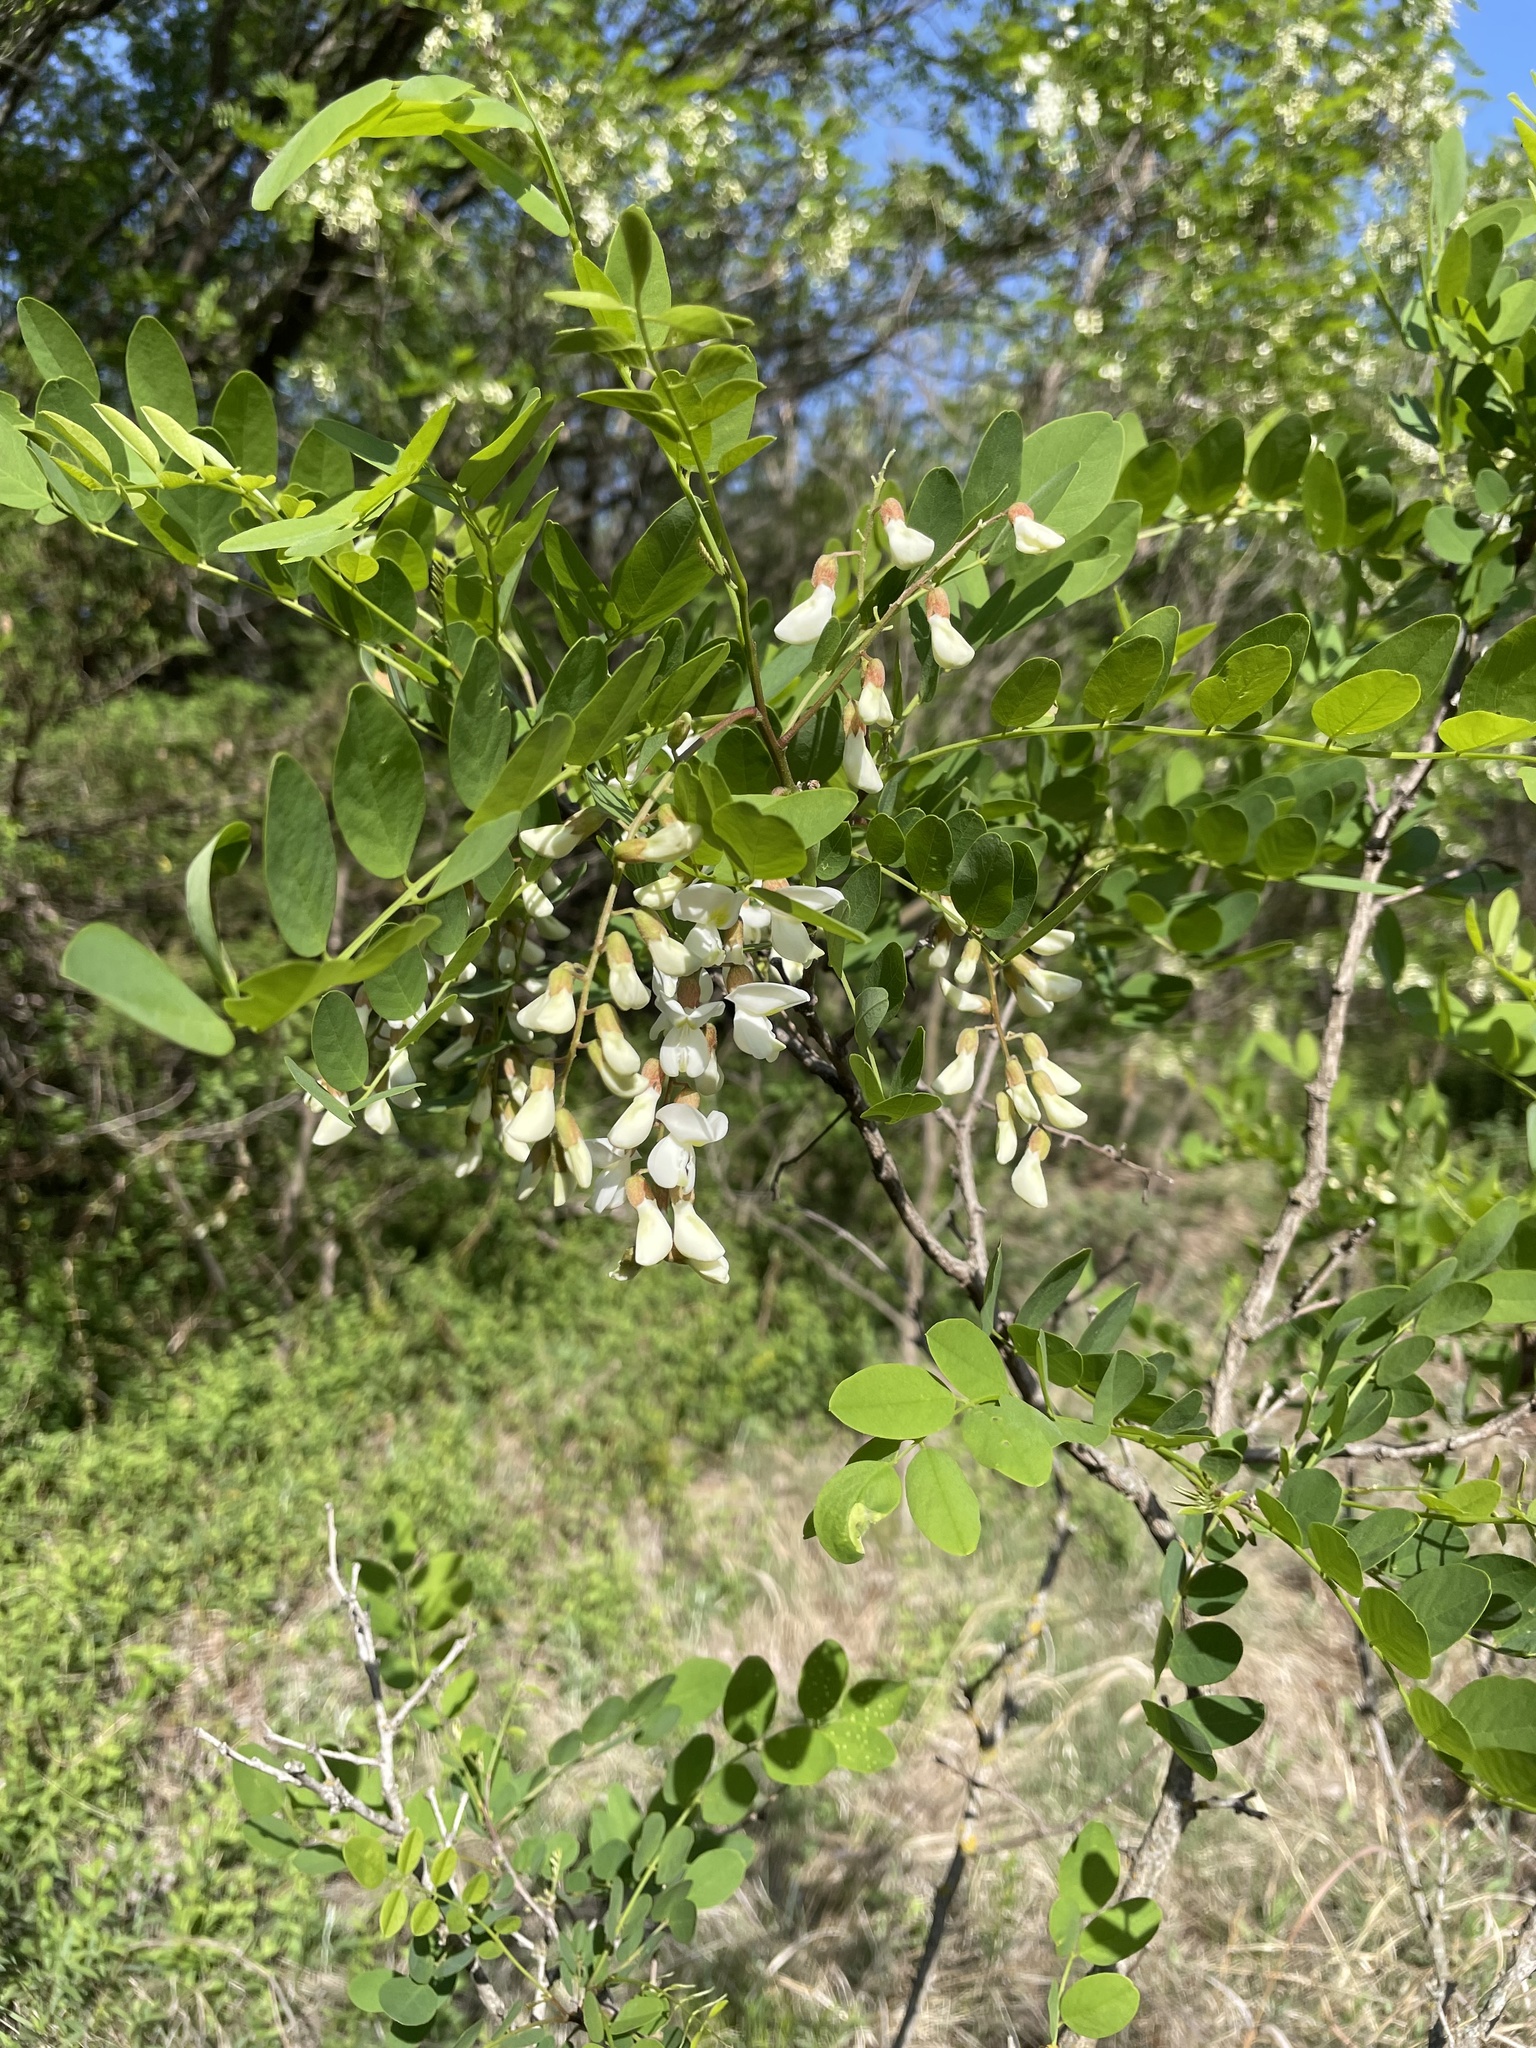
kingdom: Plantae
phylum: Tracheophyta
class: Magnoliopsida
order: Fabales
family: Fabaceae
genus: Robinia
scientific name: Robinia pseudoacacia
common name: Black locust
